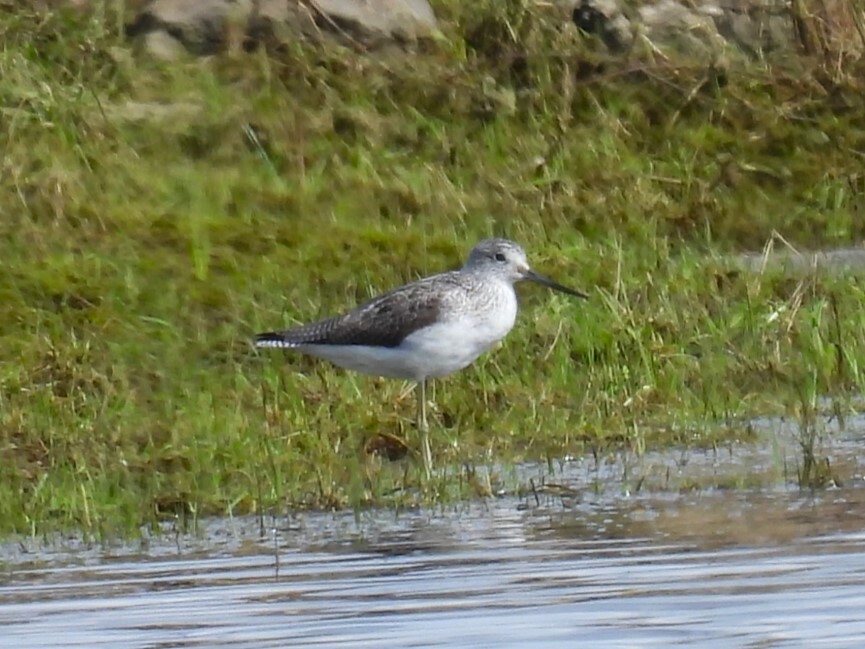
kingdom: Animalia
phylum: Chordata
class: Aves
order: Charadriiformes
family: Scolopacidae
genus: Tringa
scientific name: Tringa nebularia
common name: Common greenshank
